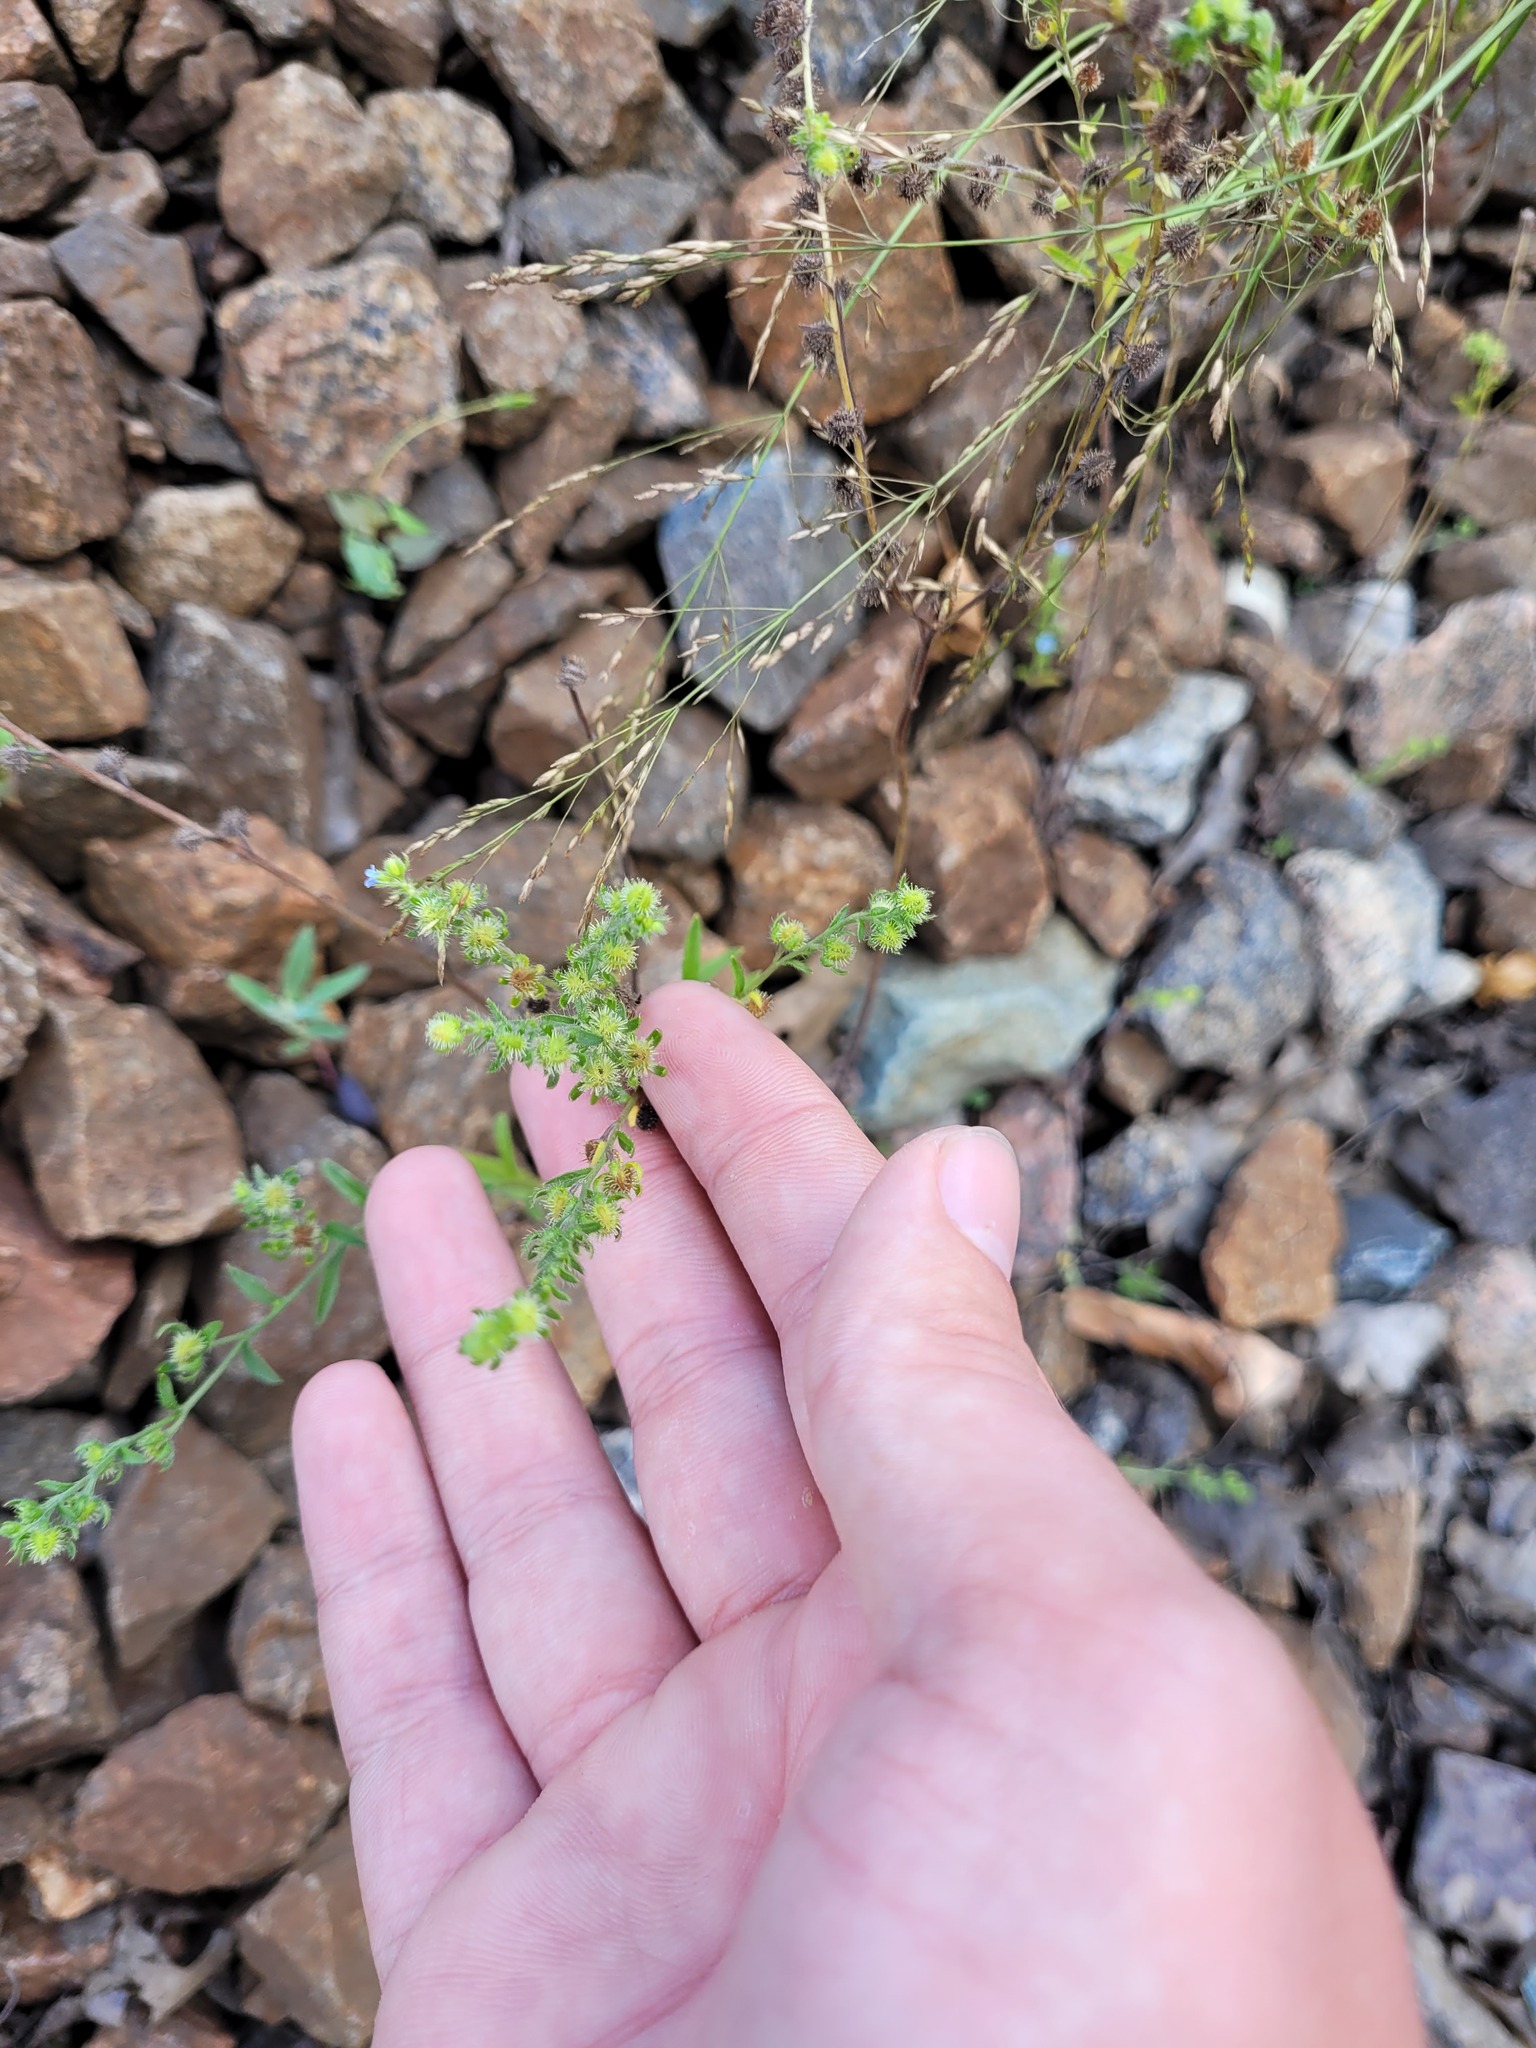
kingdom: Plantae
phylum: Tracheophyta
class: Magnoliopsida
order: Boraginales
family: Boraginaceae
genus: Lappula
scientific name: Lappula squarrosa
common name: European stickseed
